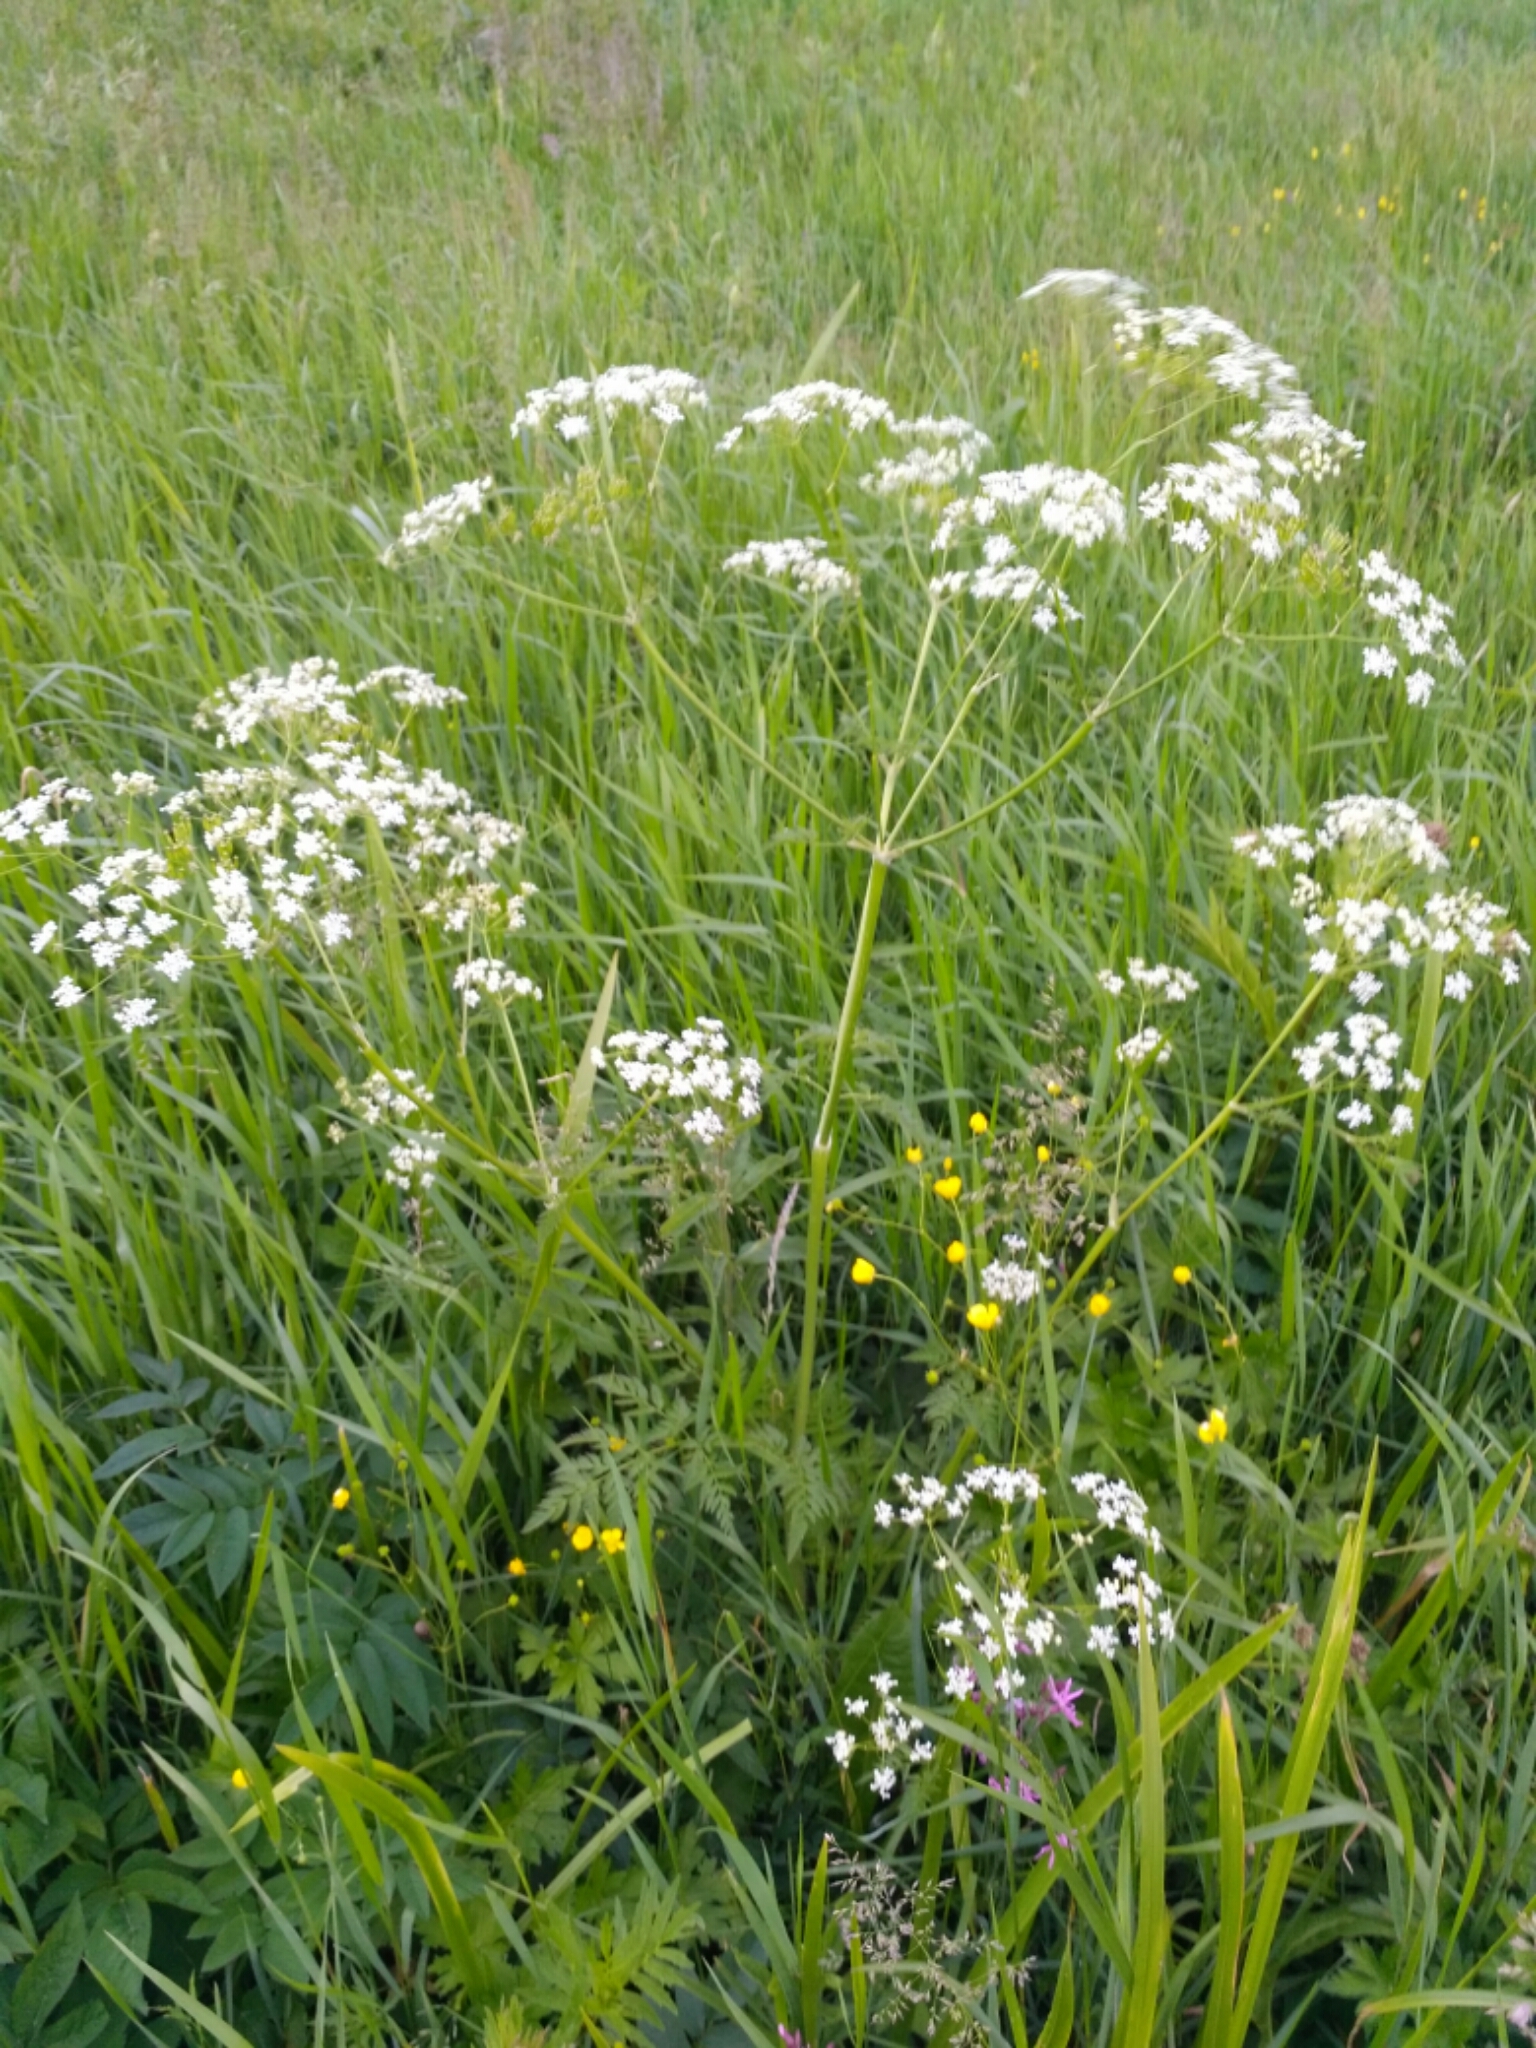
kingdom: Plantae
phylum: Tracheophyta
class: Magnoliopsida
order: Apiales
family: Apiaceae
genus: Anthriscus
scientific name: Anthriscus sylvestris
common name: Cow parsley
